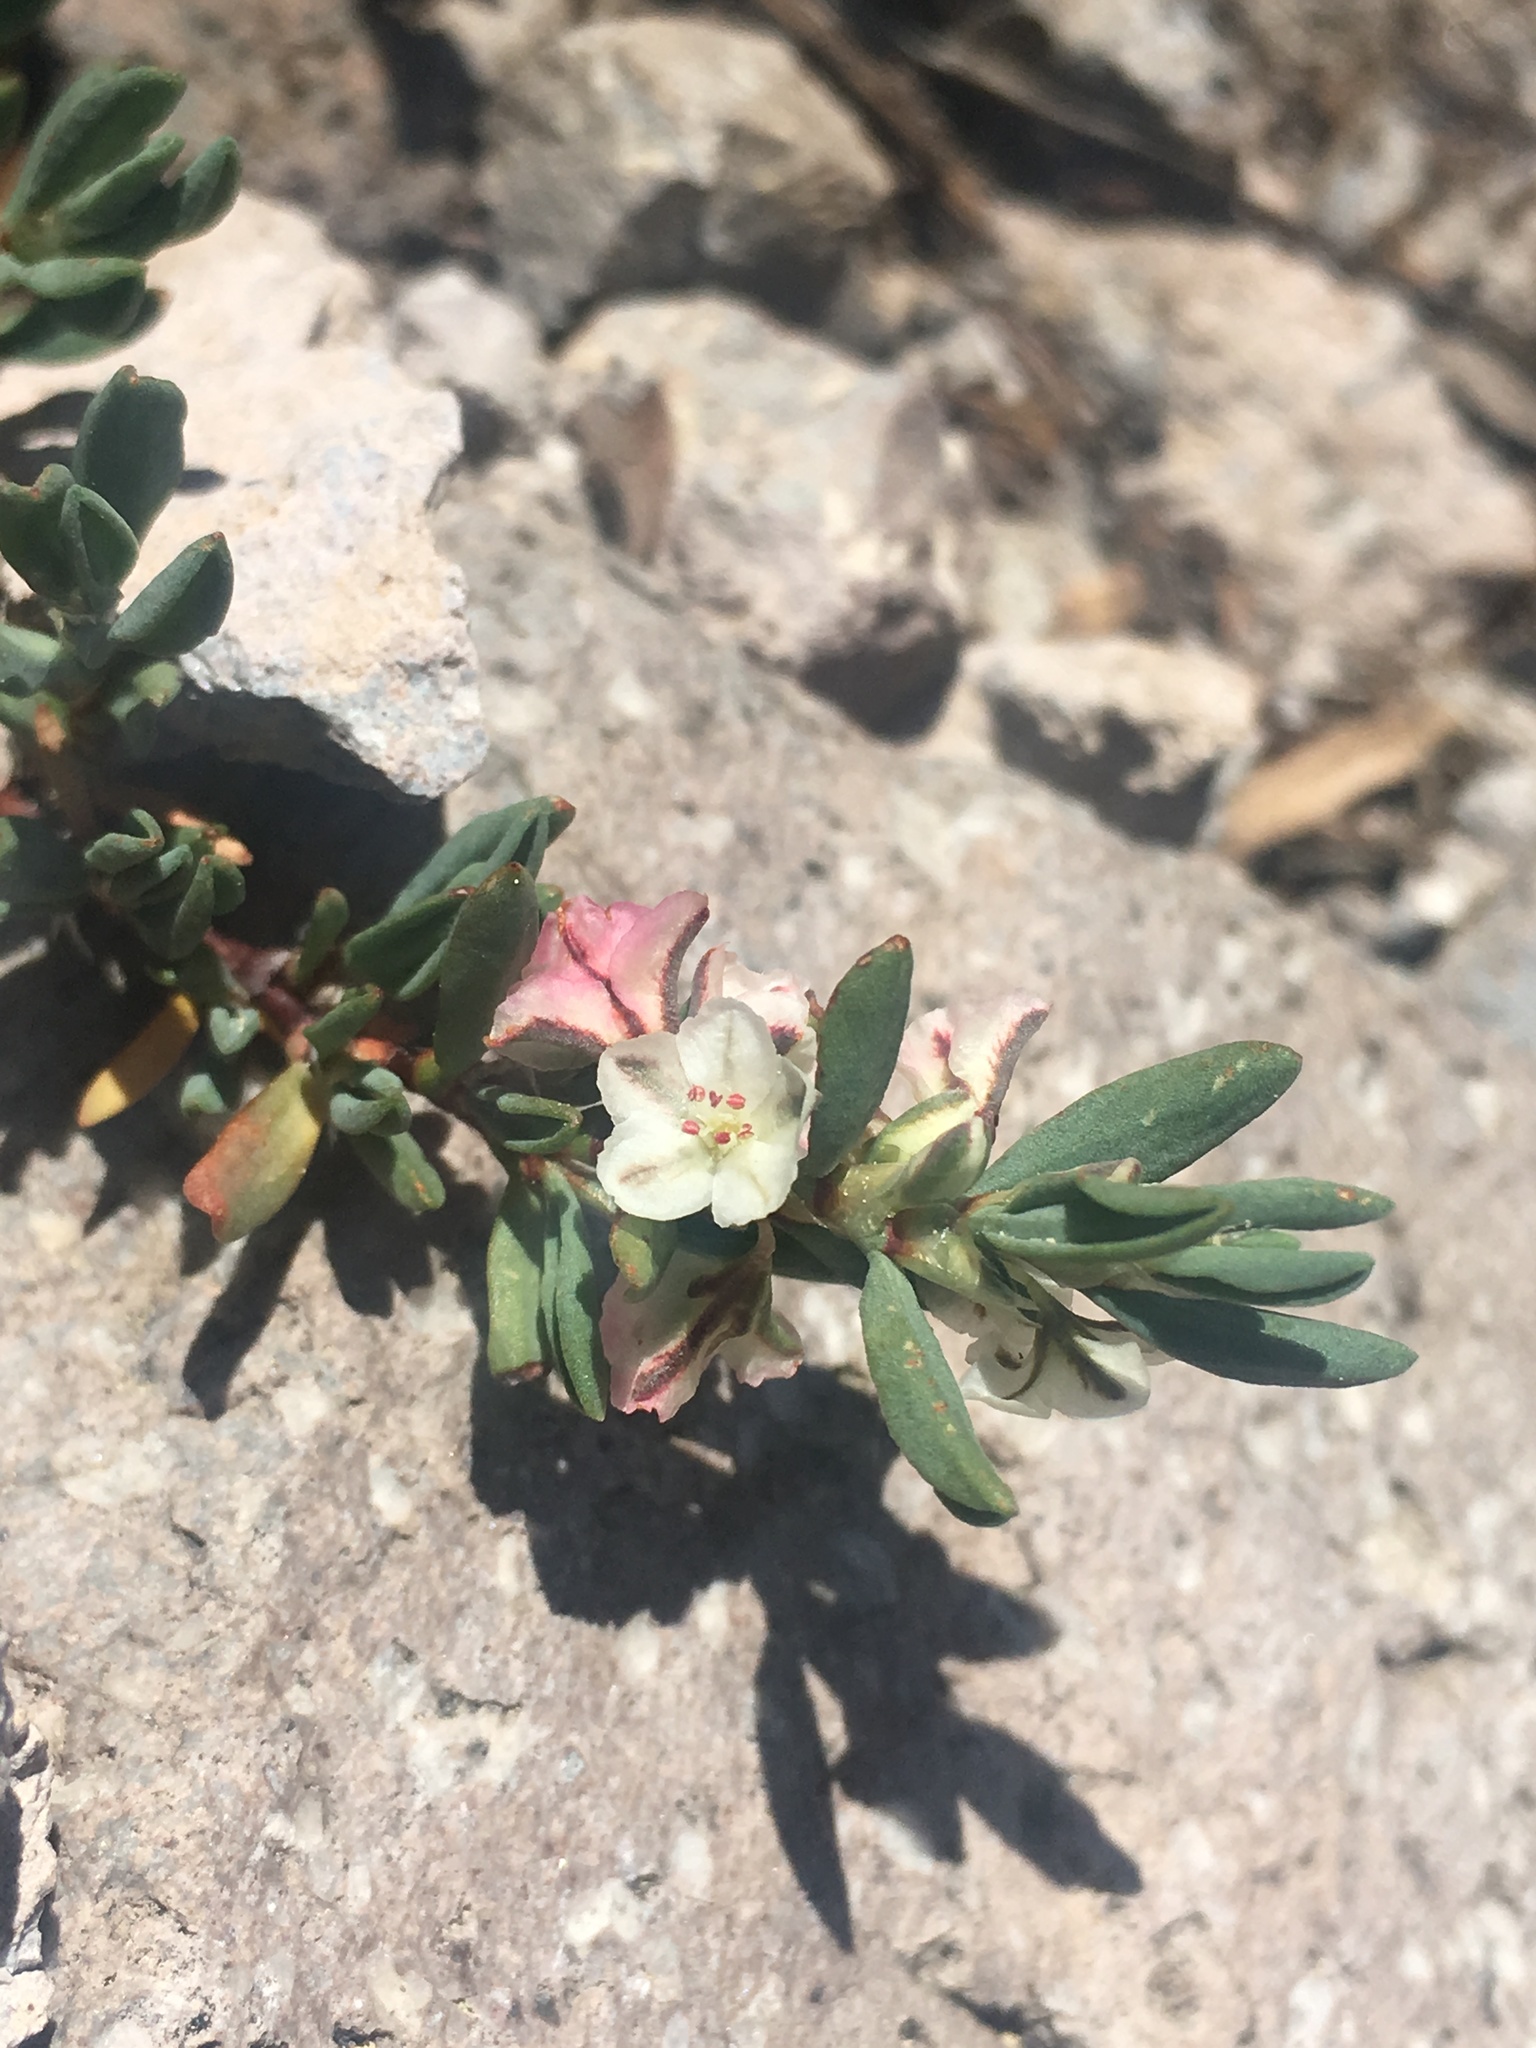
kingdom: Plantae
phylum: Tracheophyta
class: Magnoliopsida
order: Caryophyllales
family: Polygonaceae
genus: Polygonum
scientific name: Polygonum shastense
